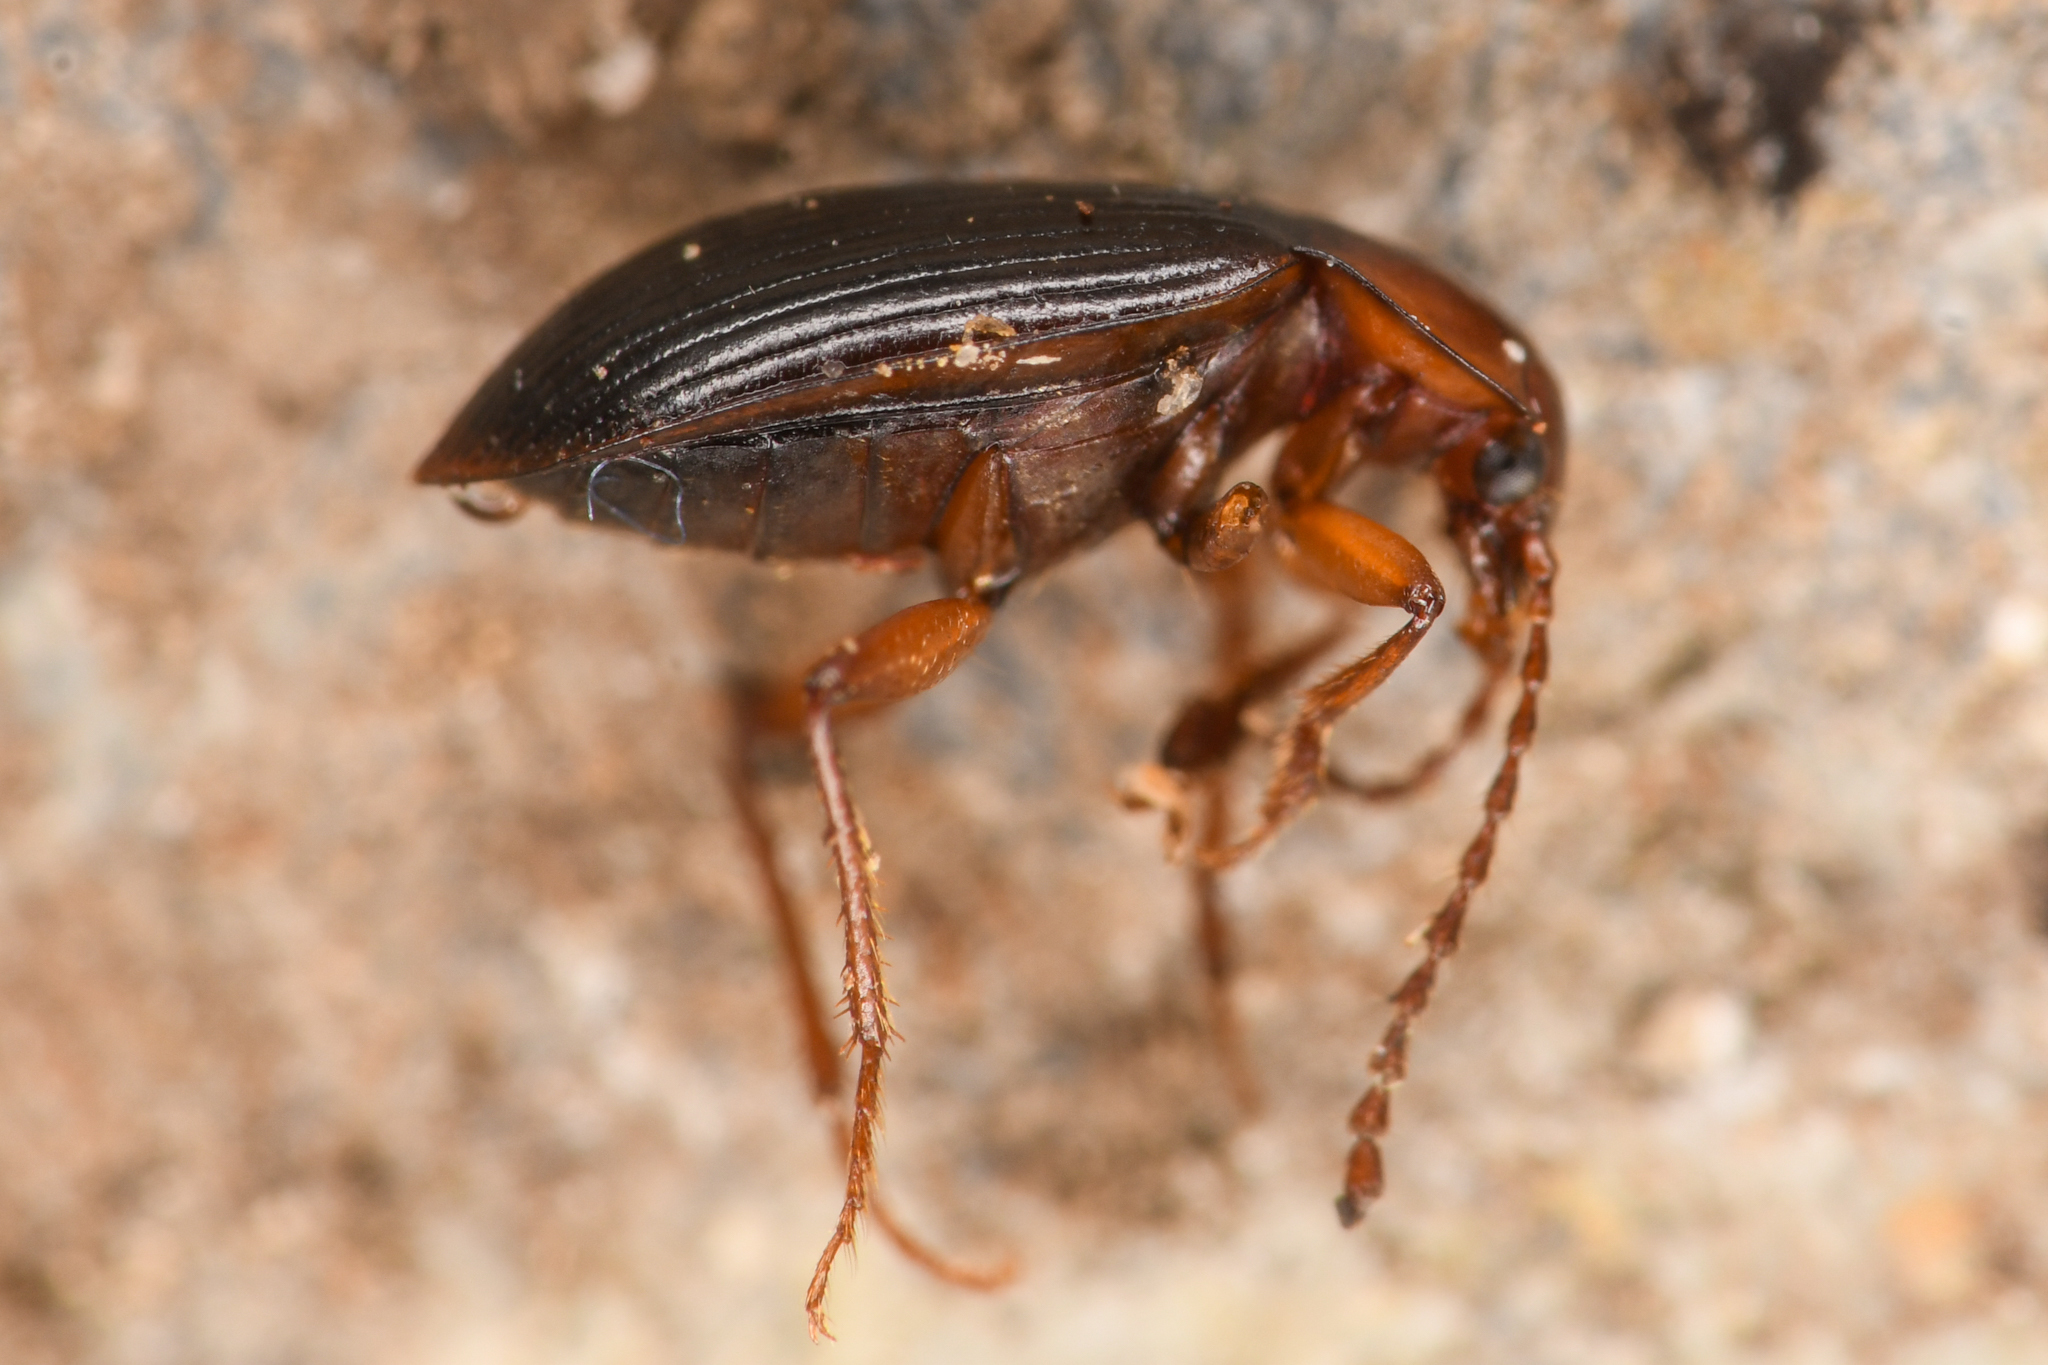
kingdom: Animalia
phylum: Arthropoda
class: Insecta
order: Coleoptera
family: Agyrtidae
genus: Apteroloma
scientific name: Apteroloma tahoecum
